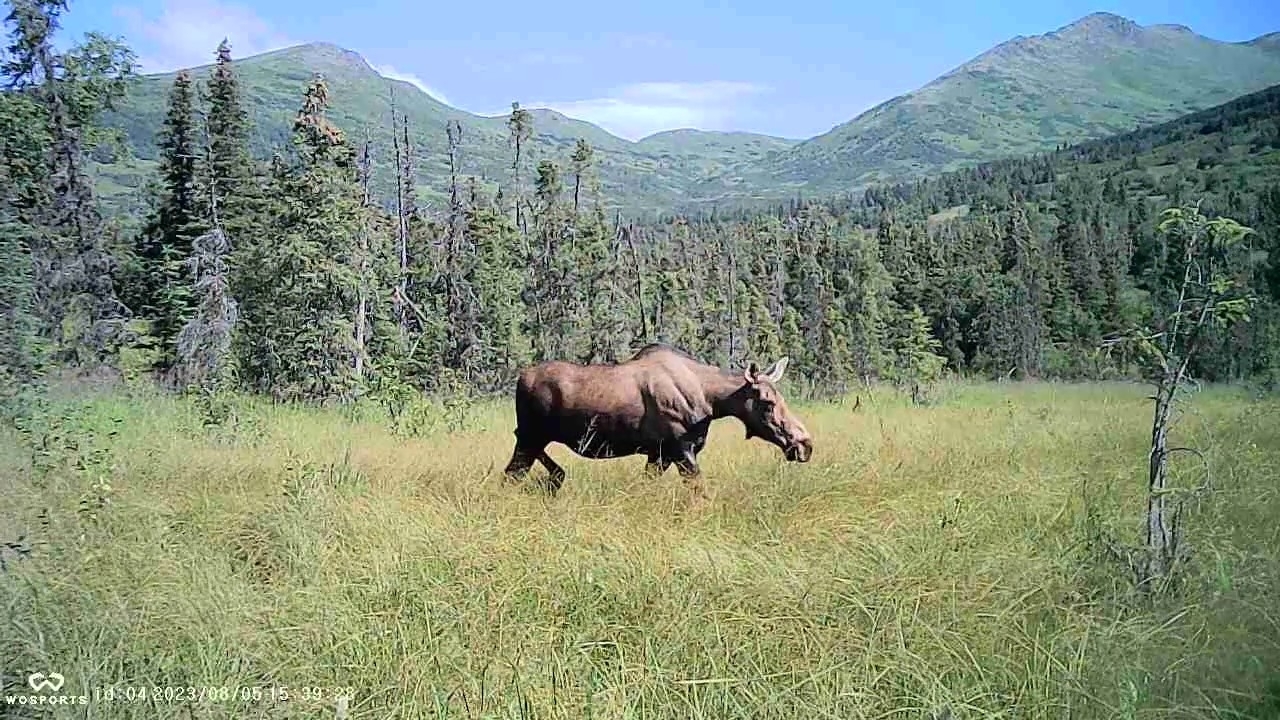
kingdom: Animalia
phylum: Chordata
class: Mammalia
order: Artiodactyla
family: Cervidae
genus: Alces
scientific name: Alces alces
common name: Moose
